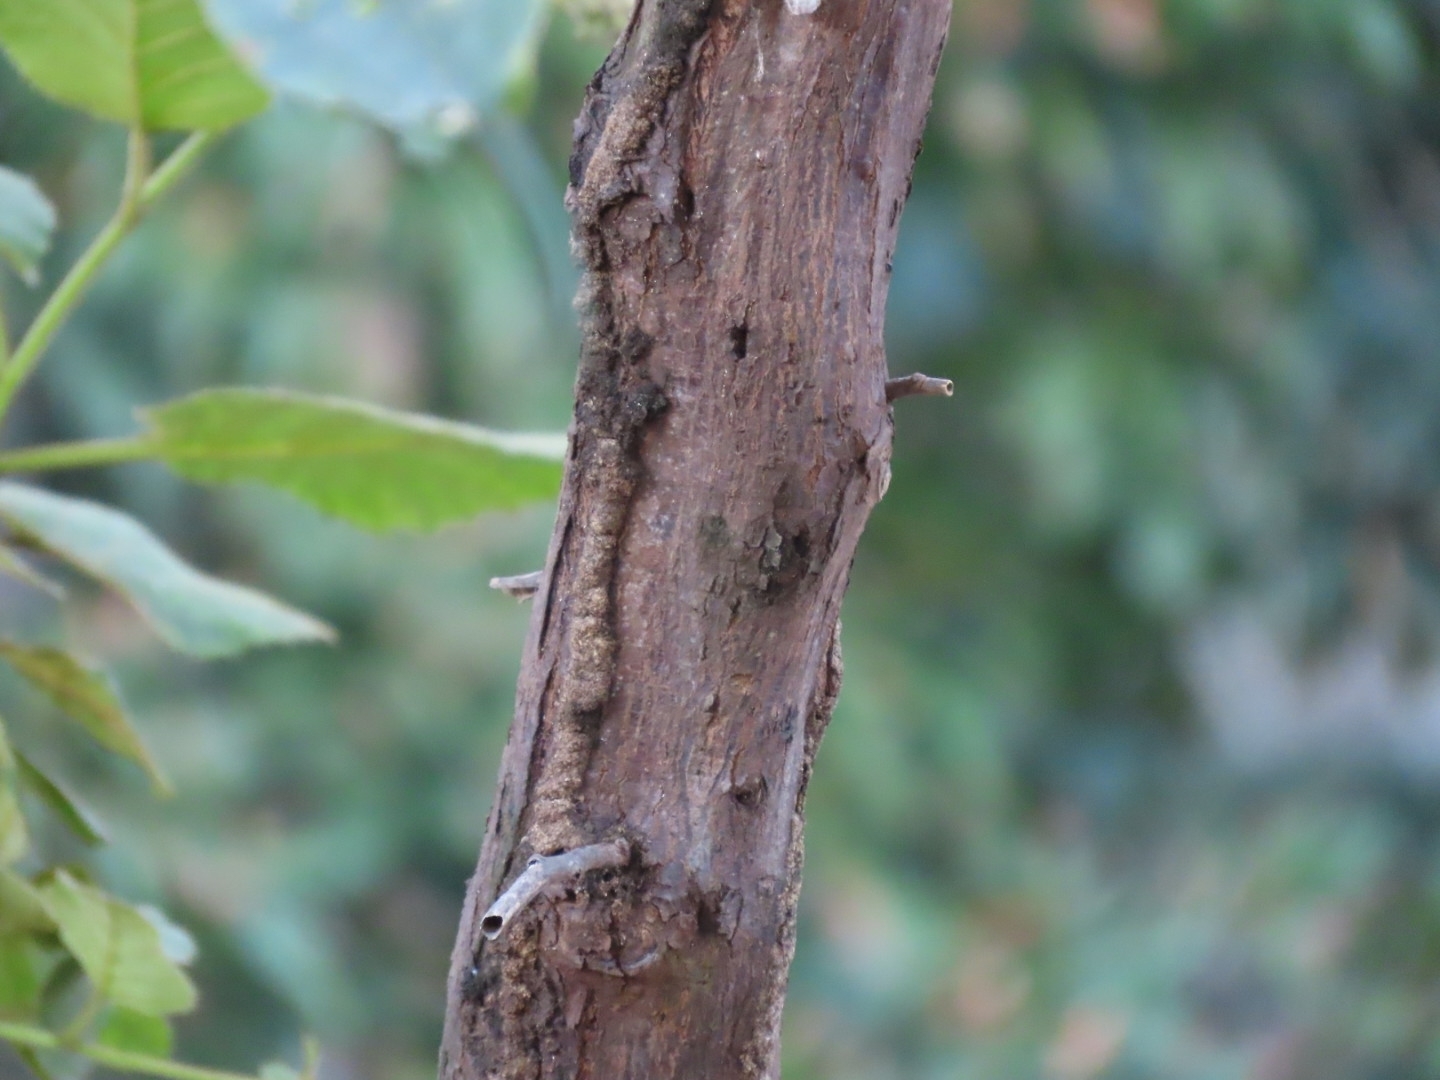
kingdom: Plantae
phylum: Tracheophyta
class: Magnoliopsida
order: Boraginales
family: Namaceae
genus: Wigandia
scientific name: Wigandia urens
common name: Caracus wigandia
